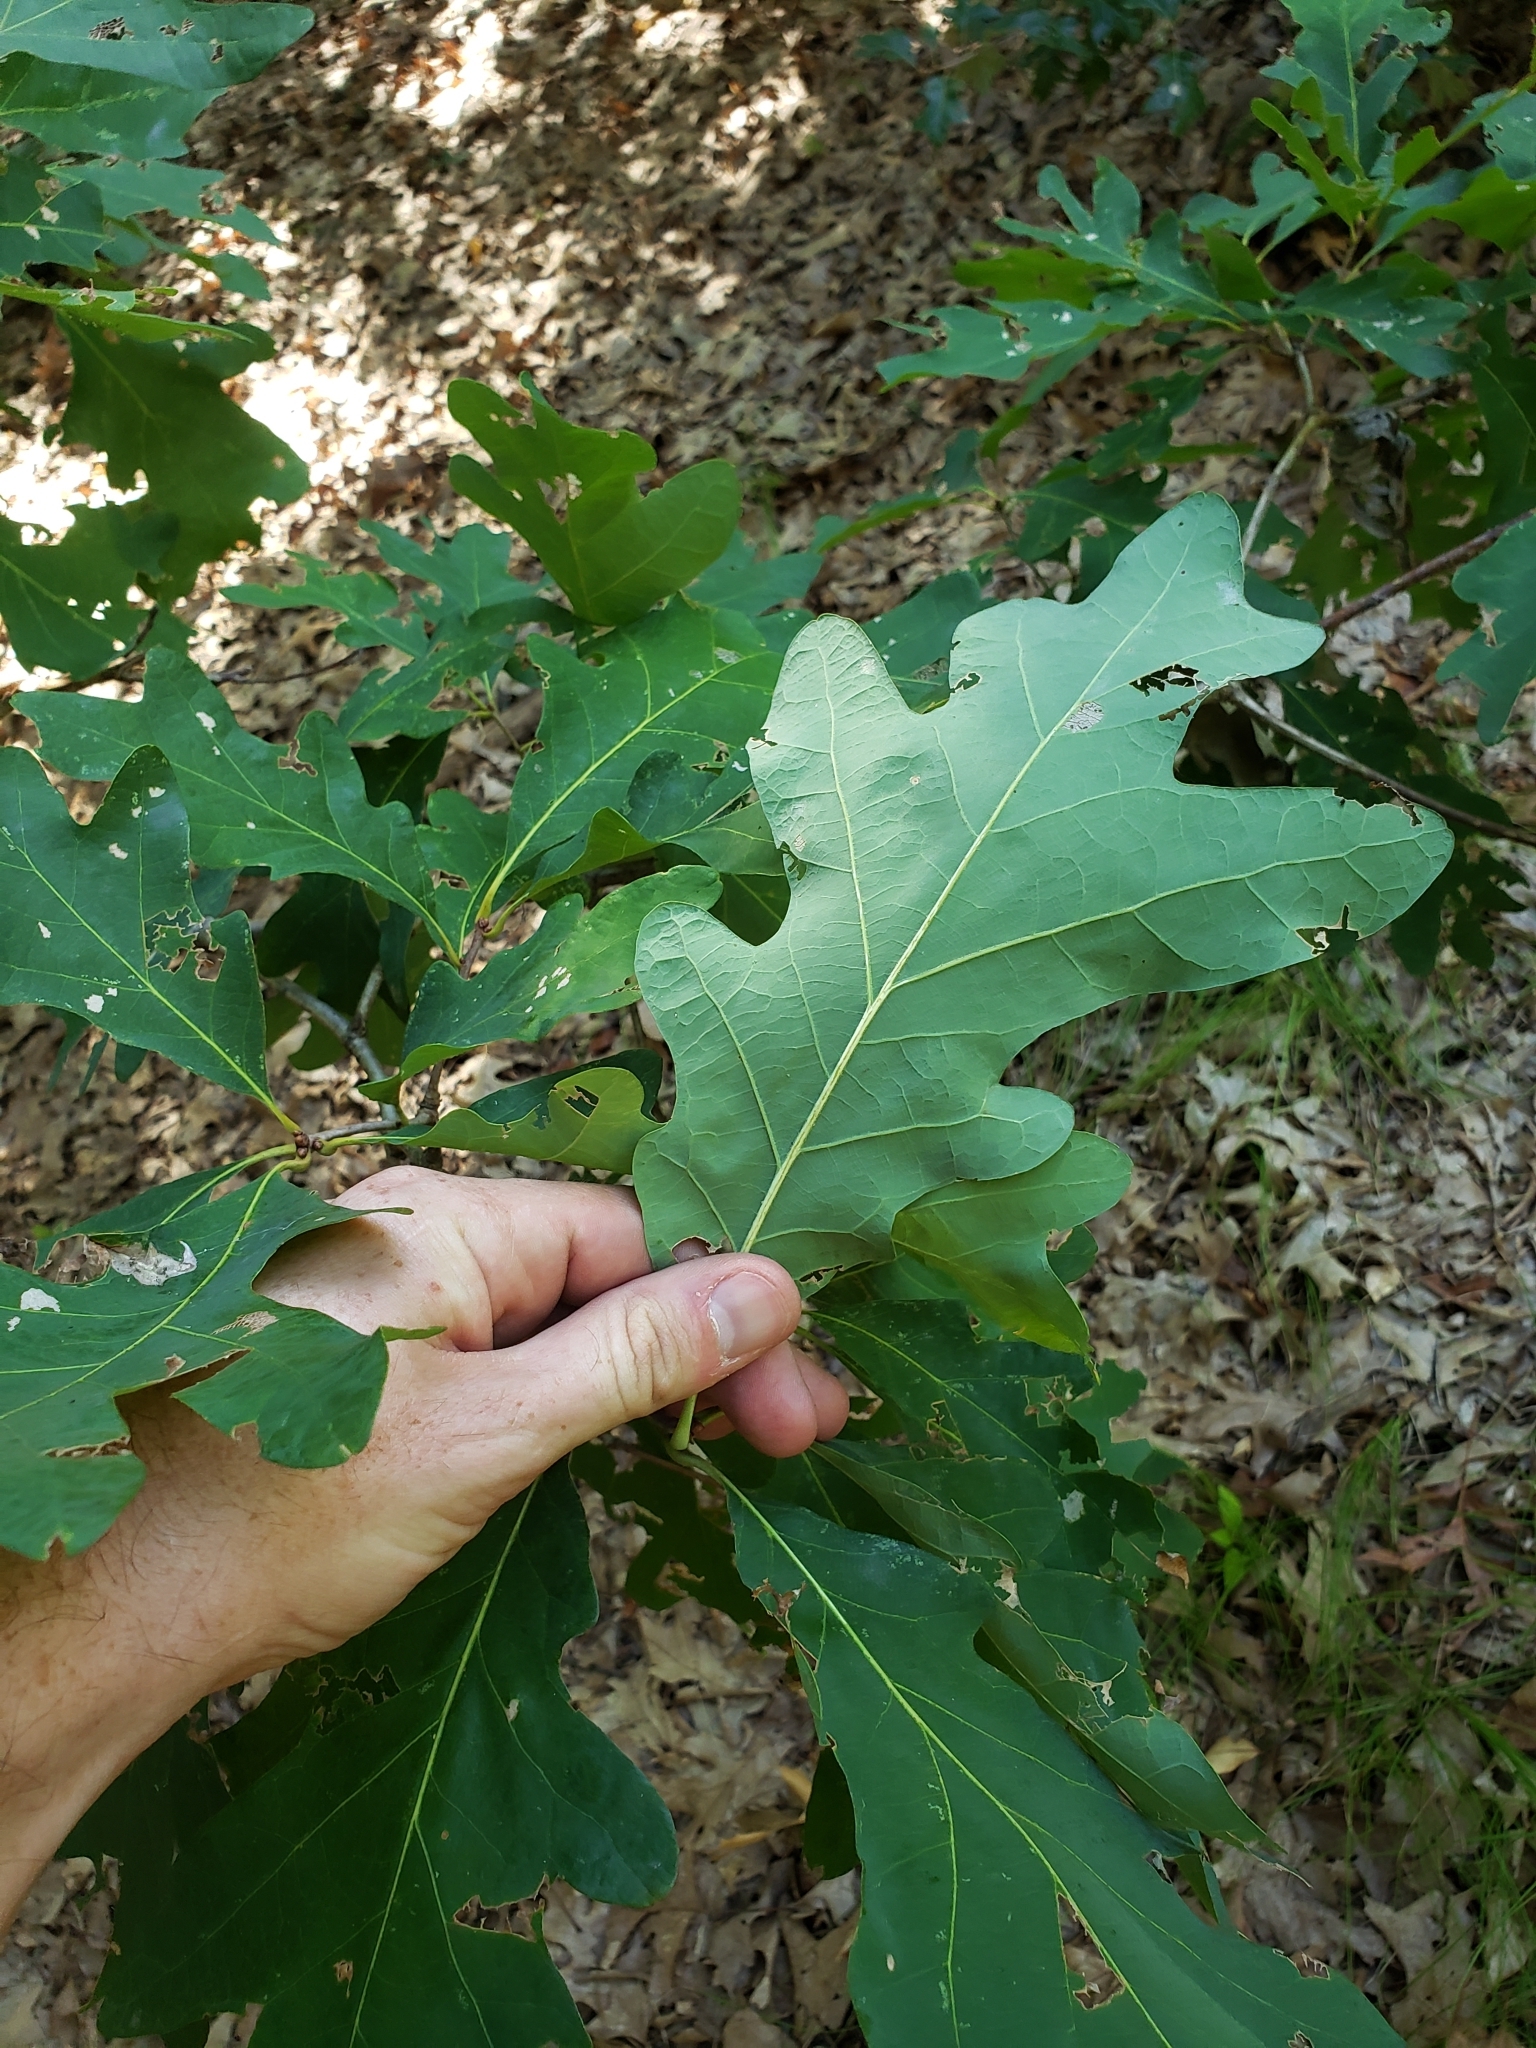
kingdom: Plantae
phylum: Tracheophyta
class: Magnoliopsida
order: Fagales
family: Fagaceae
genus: Quercus
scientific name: Quercus alba
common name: White oak
